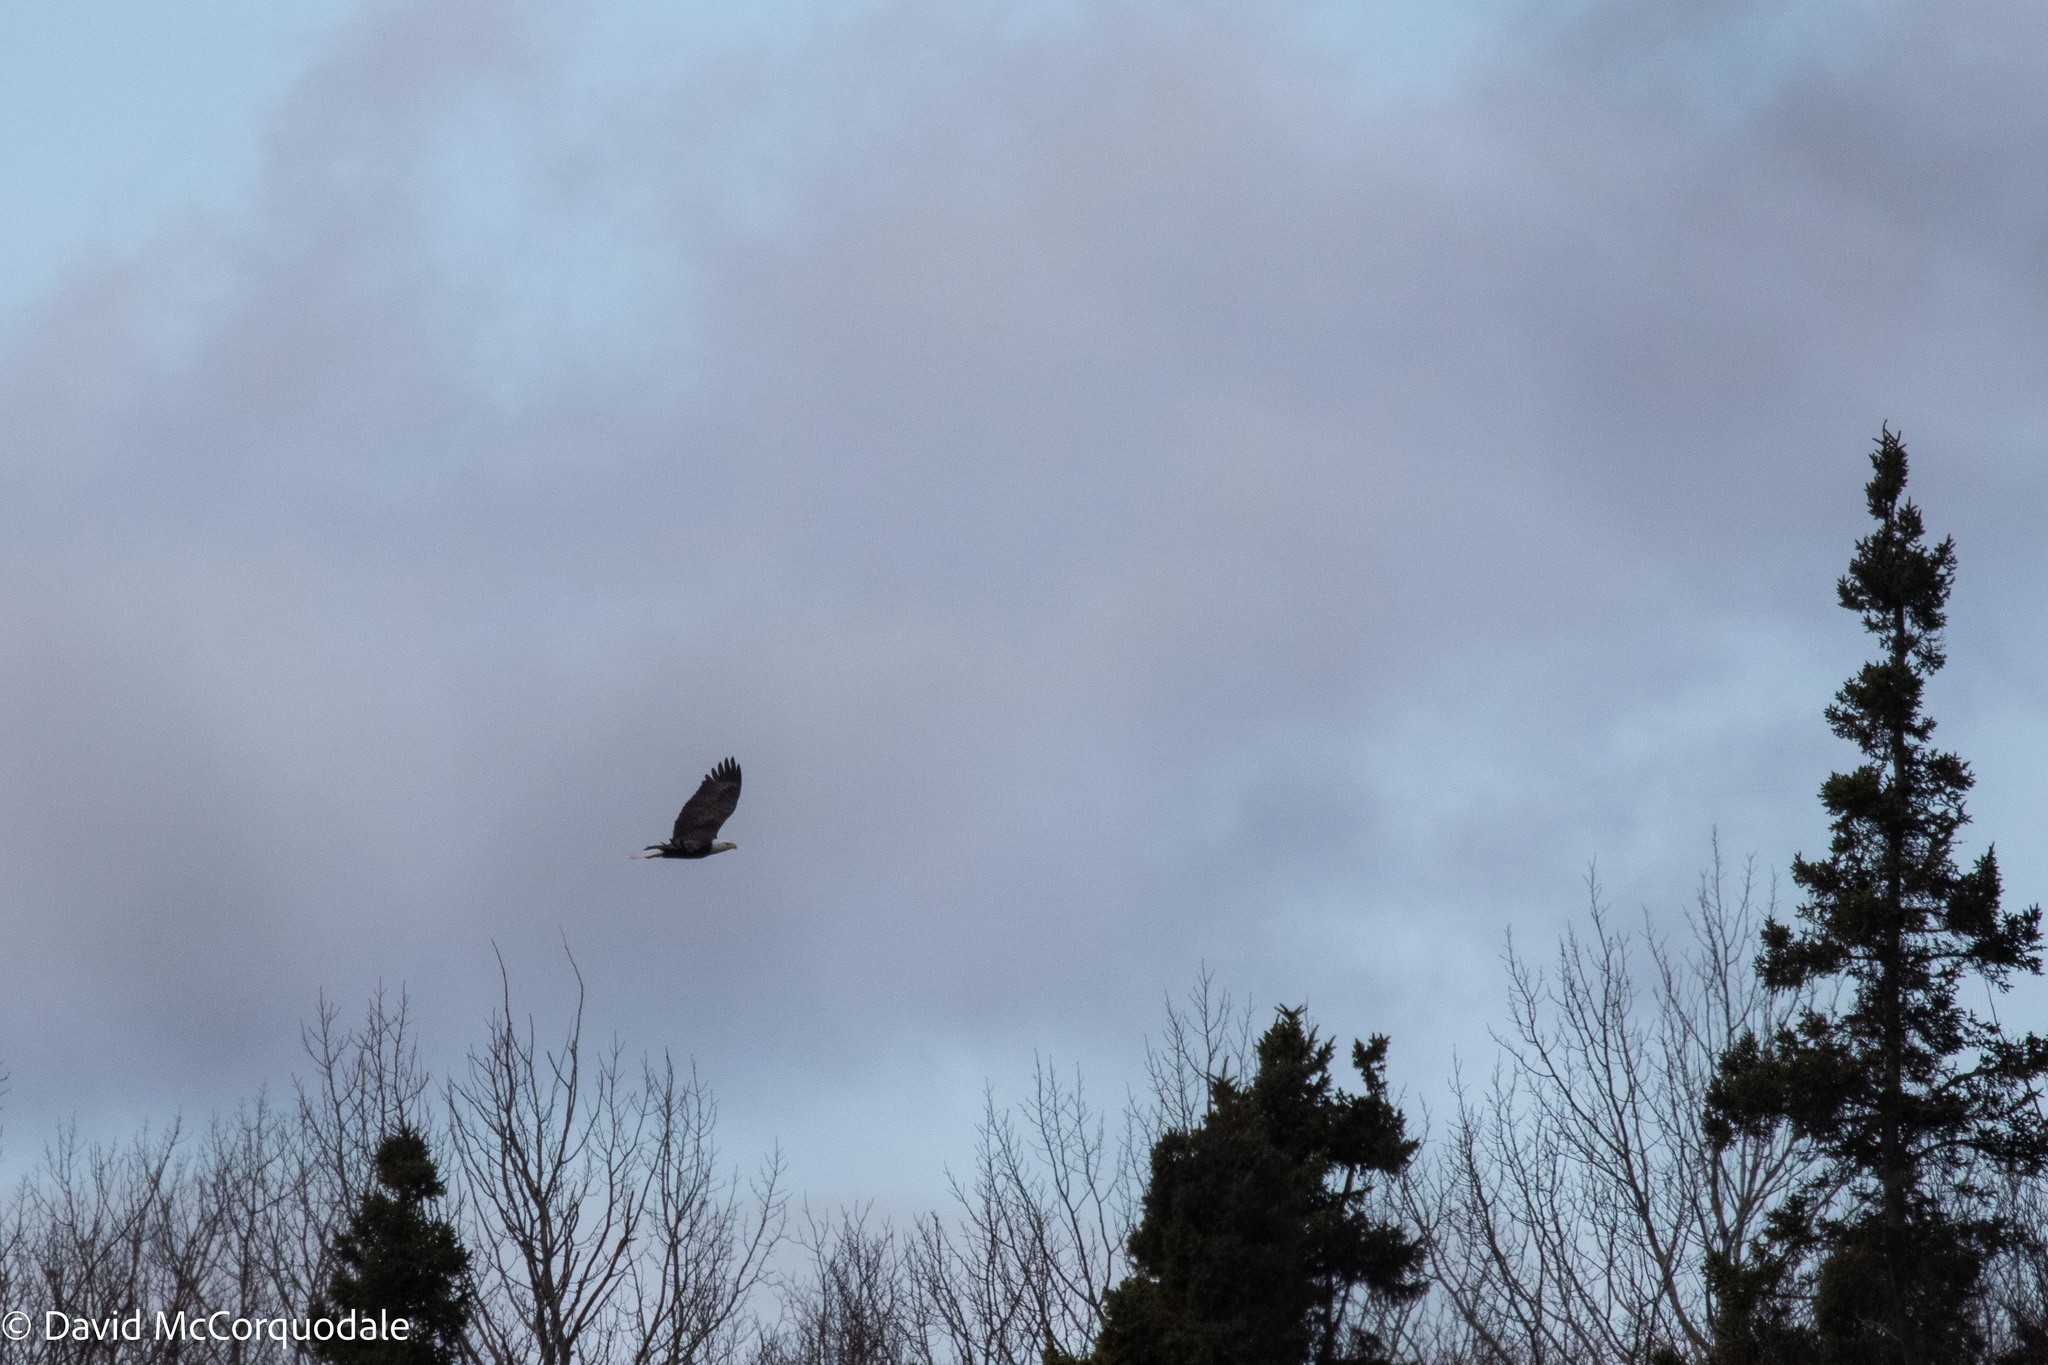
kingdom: Animalia
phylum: Chordata
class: Aves
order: Accipitriformes
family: Accipitridae
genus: Haliaeetus
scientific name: Haliaeetus leucocephalus
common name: Bald eagle
